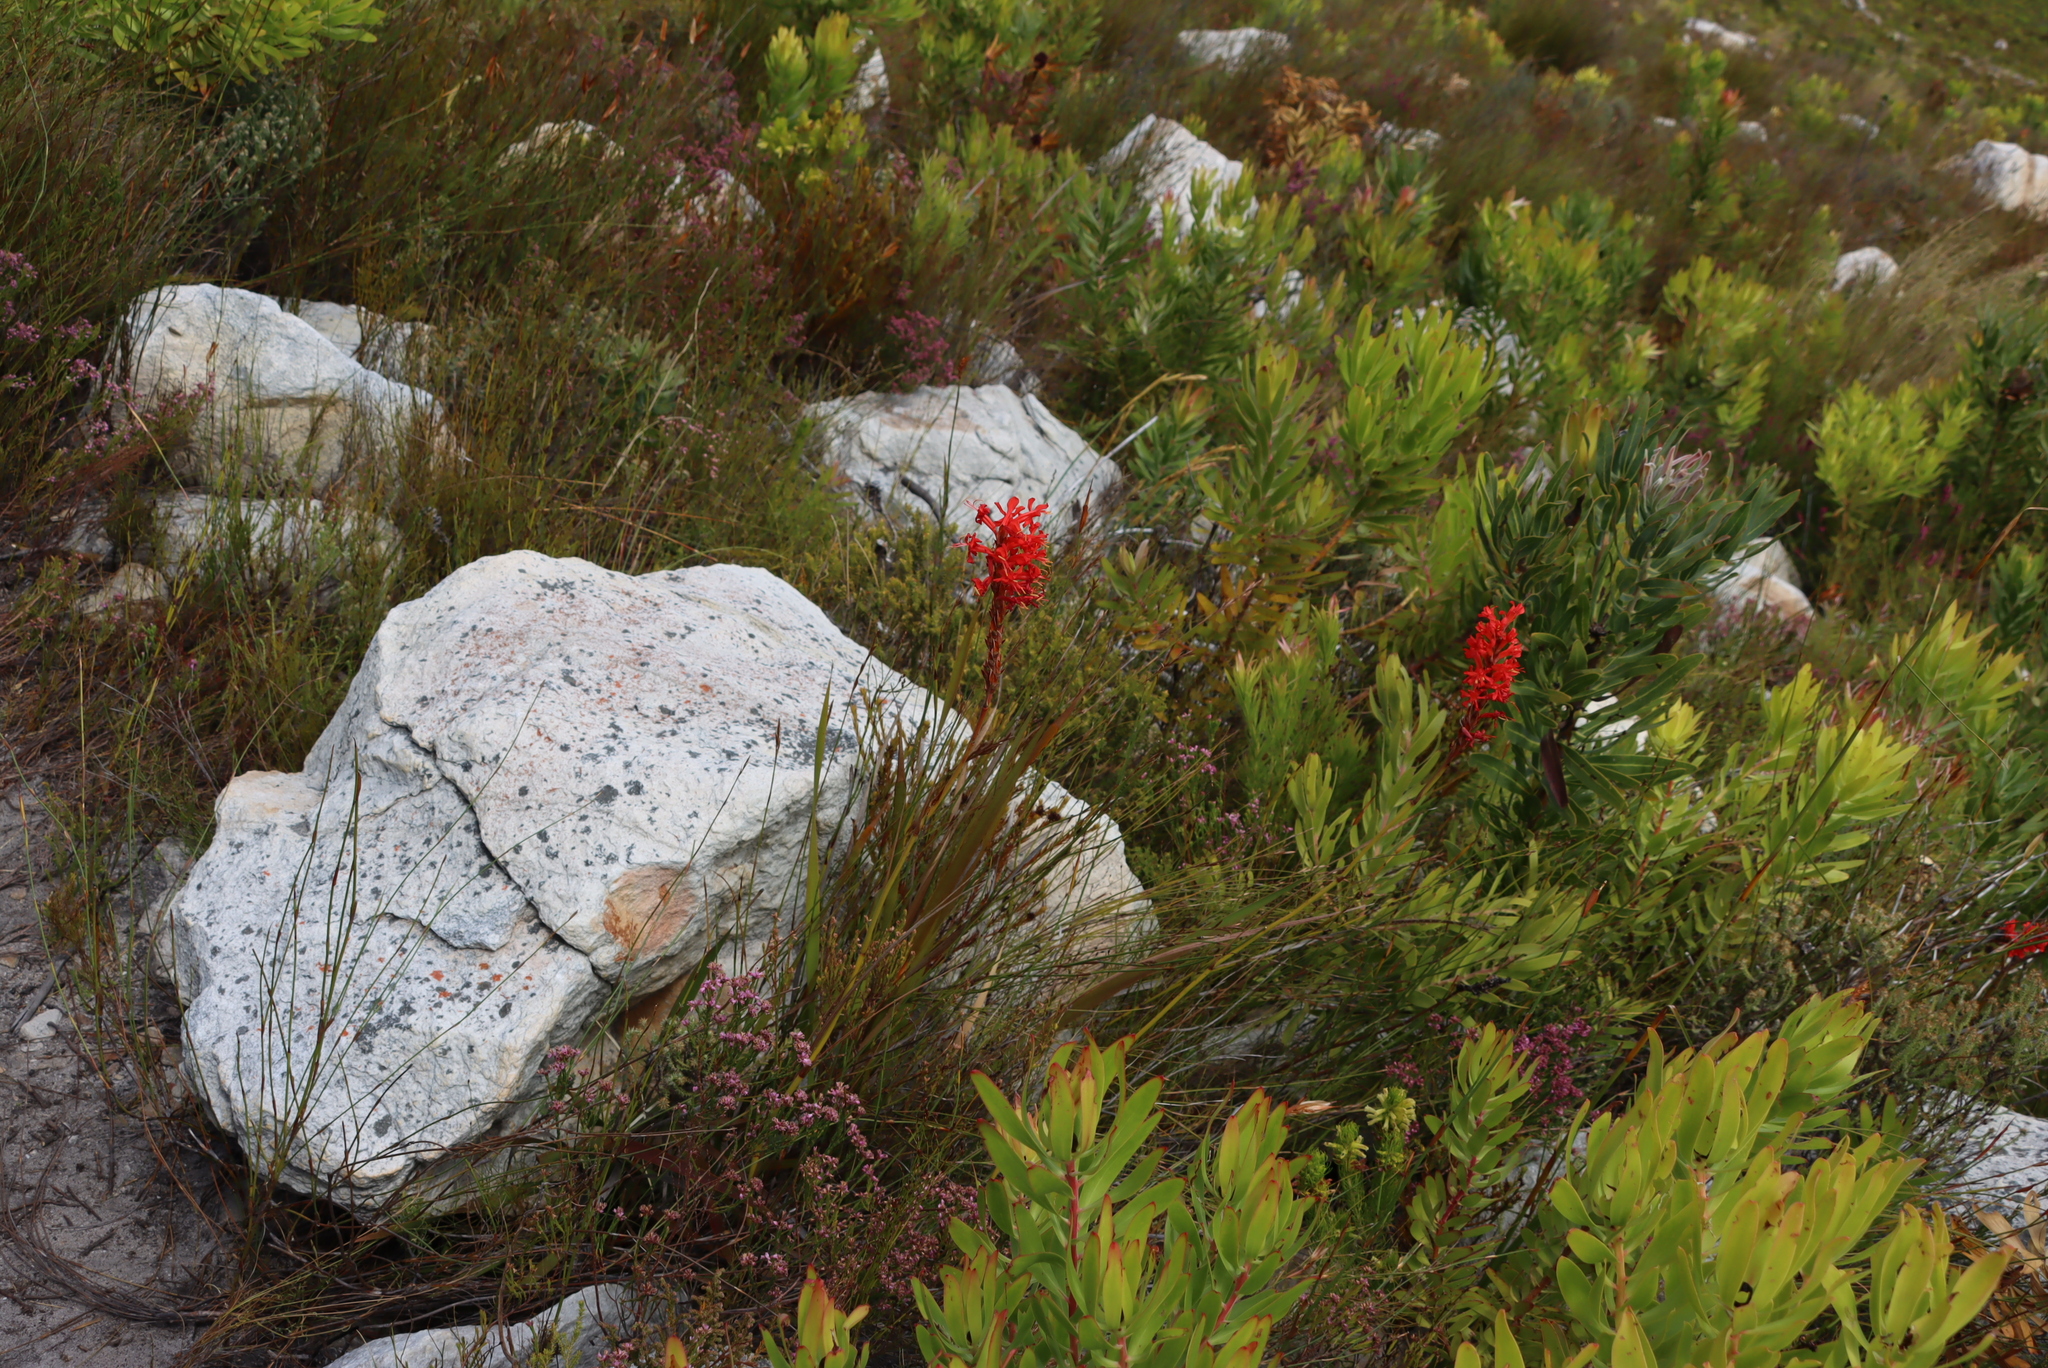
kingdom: Plantae
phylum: Tracheophyta
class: Liliopsida
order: Asparagales
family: Iridaceae
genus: Tritoniopsis
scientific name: Tritoniopsis triticea
